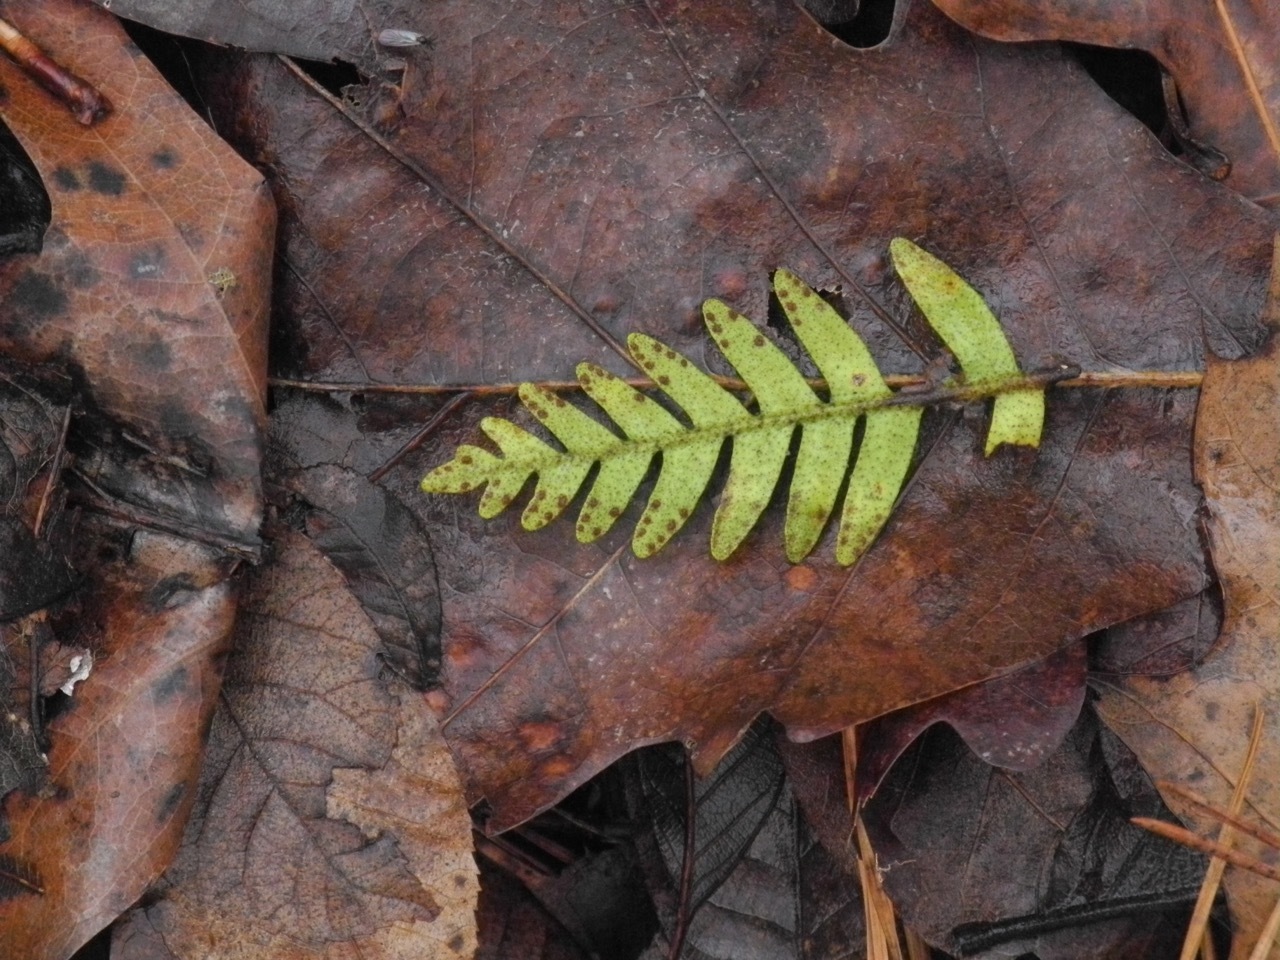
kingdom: Plantae
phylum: Tracheophyta
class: Polypodiopsida
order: Polypodiales
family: Polypodiaceae
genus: Pleopeltis
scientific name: Pleopeltis michauxiana
